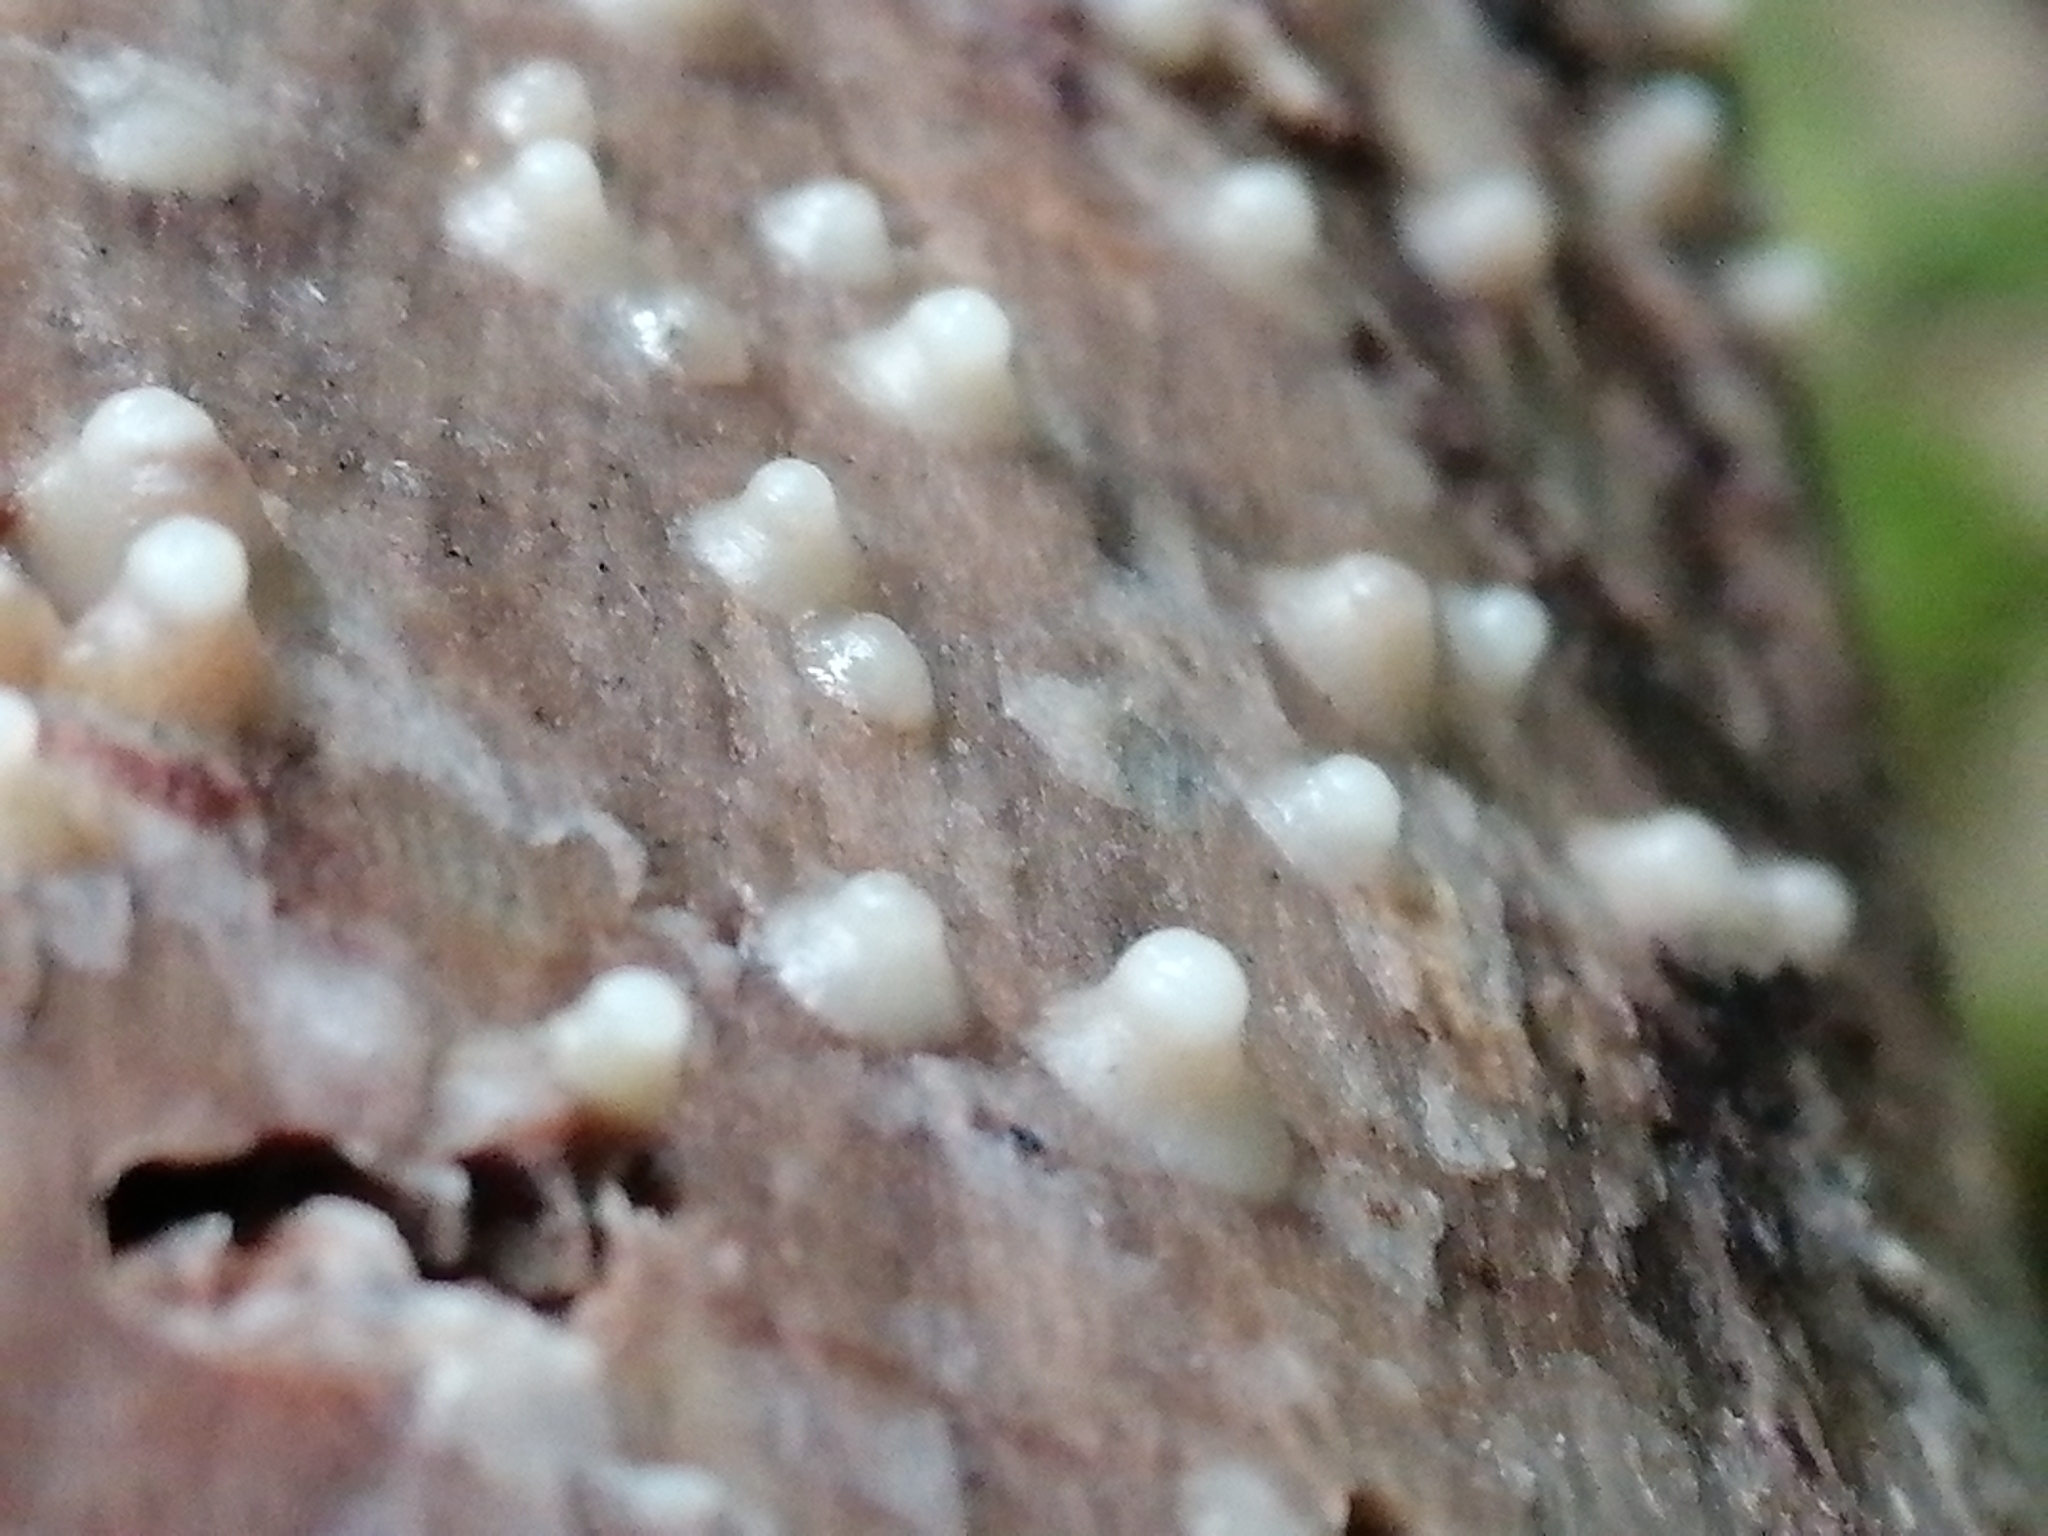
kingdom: Fungi
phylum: Basidiomycota
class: Atractiellomycetes
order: Atractiellales
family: Phleogenaceae
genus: Helicogloea
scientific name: Helicogloea compressa
